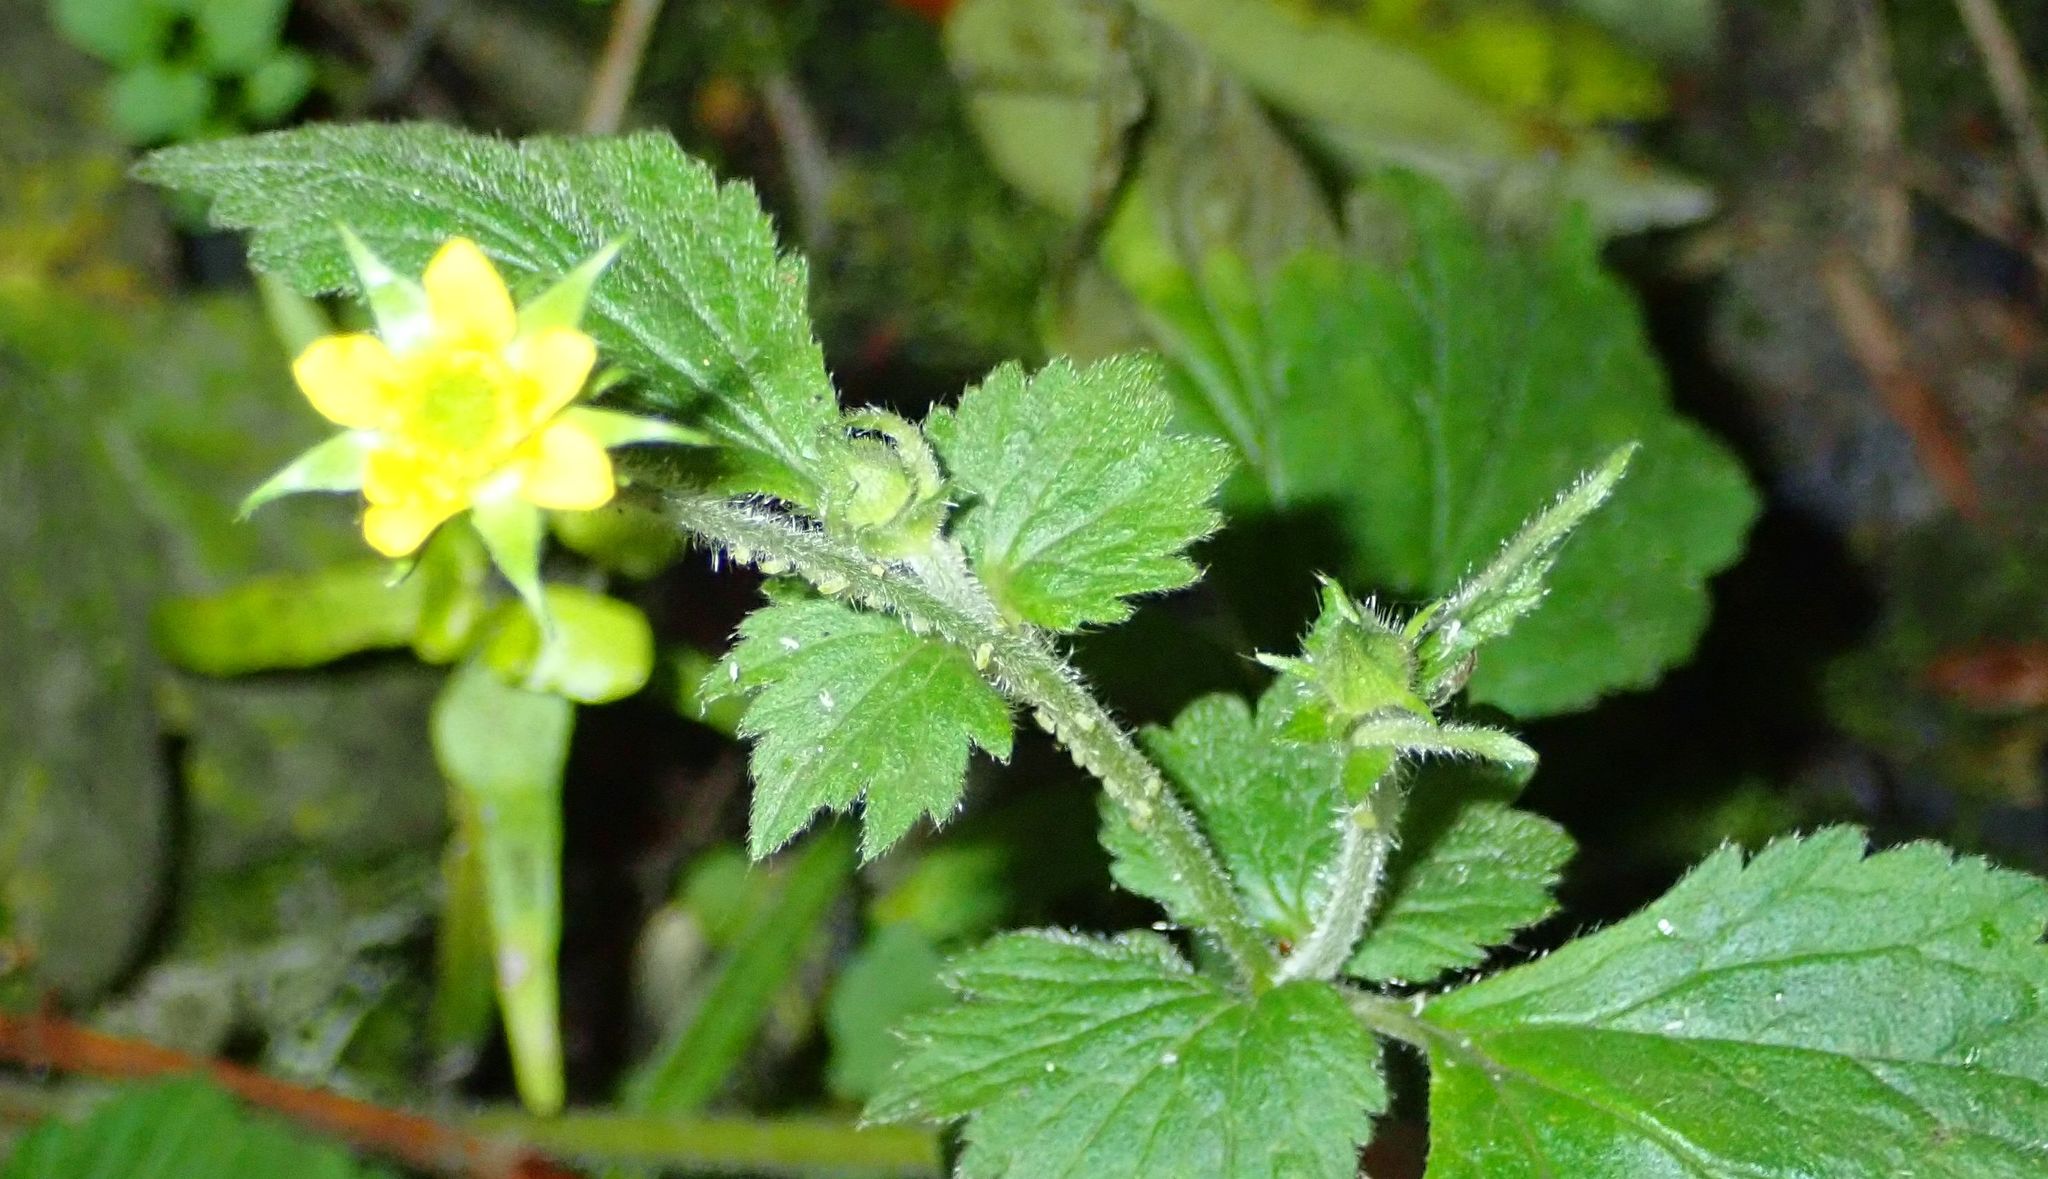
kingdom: Plantae
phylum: Tracheophyta
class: Magnoliopsida
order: Rosales
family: Rosaceae
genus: Geum
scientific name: Geum urbanum
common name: Wood avens
